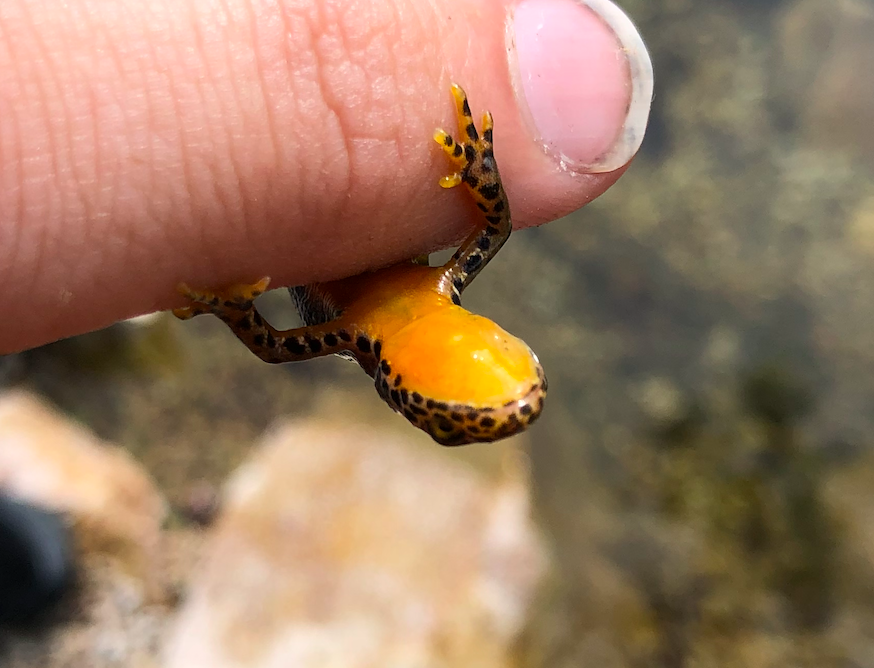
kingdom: Animalia
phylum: Chordata
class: Amphibia
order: Caudata
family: Salamandridae
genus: Ichthyosaura
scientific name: Ichthyosaura alpestris
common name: Alpine newt
